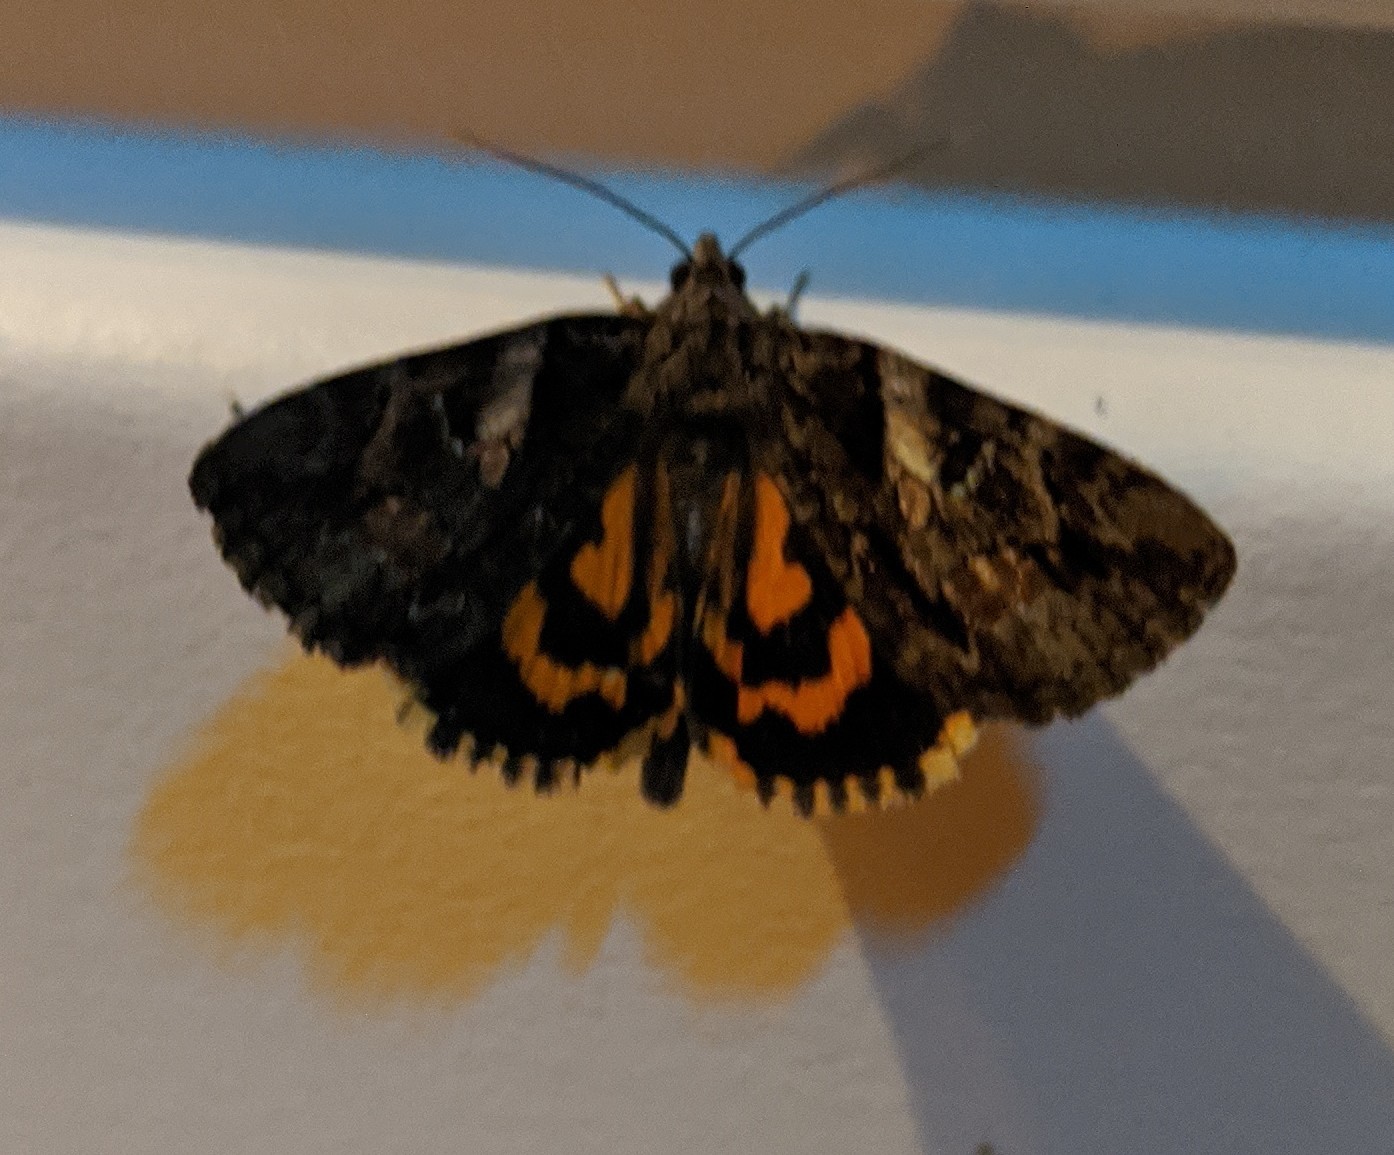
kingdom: Animalia
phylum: Arthropoda
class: Insecta
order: Lepidoptera
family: Erebidae
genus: Catocala
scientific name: Catocala blandula
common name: Charming underwing
